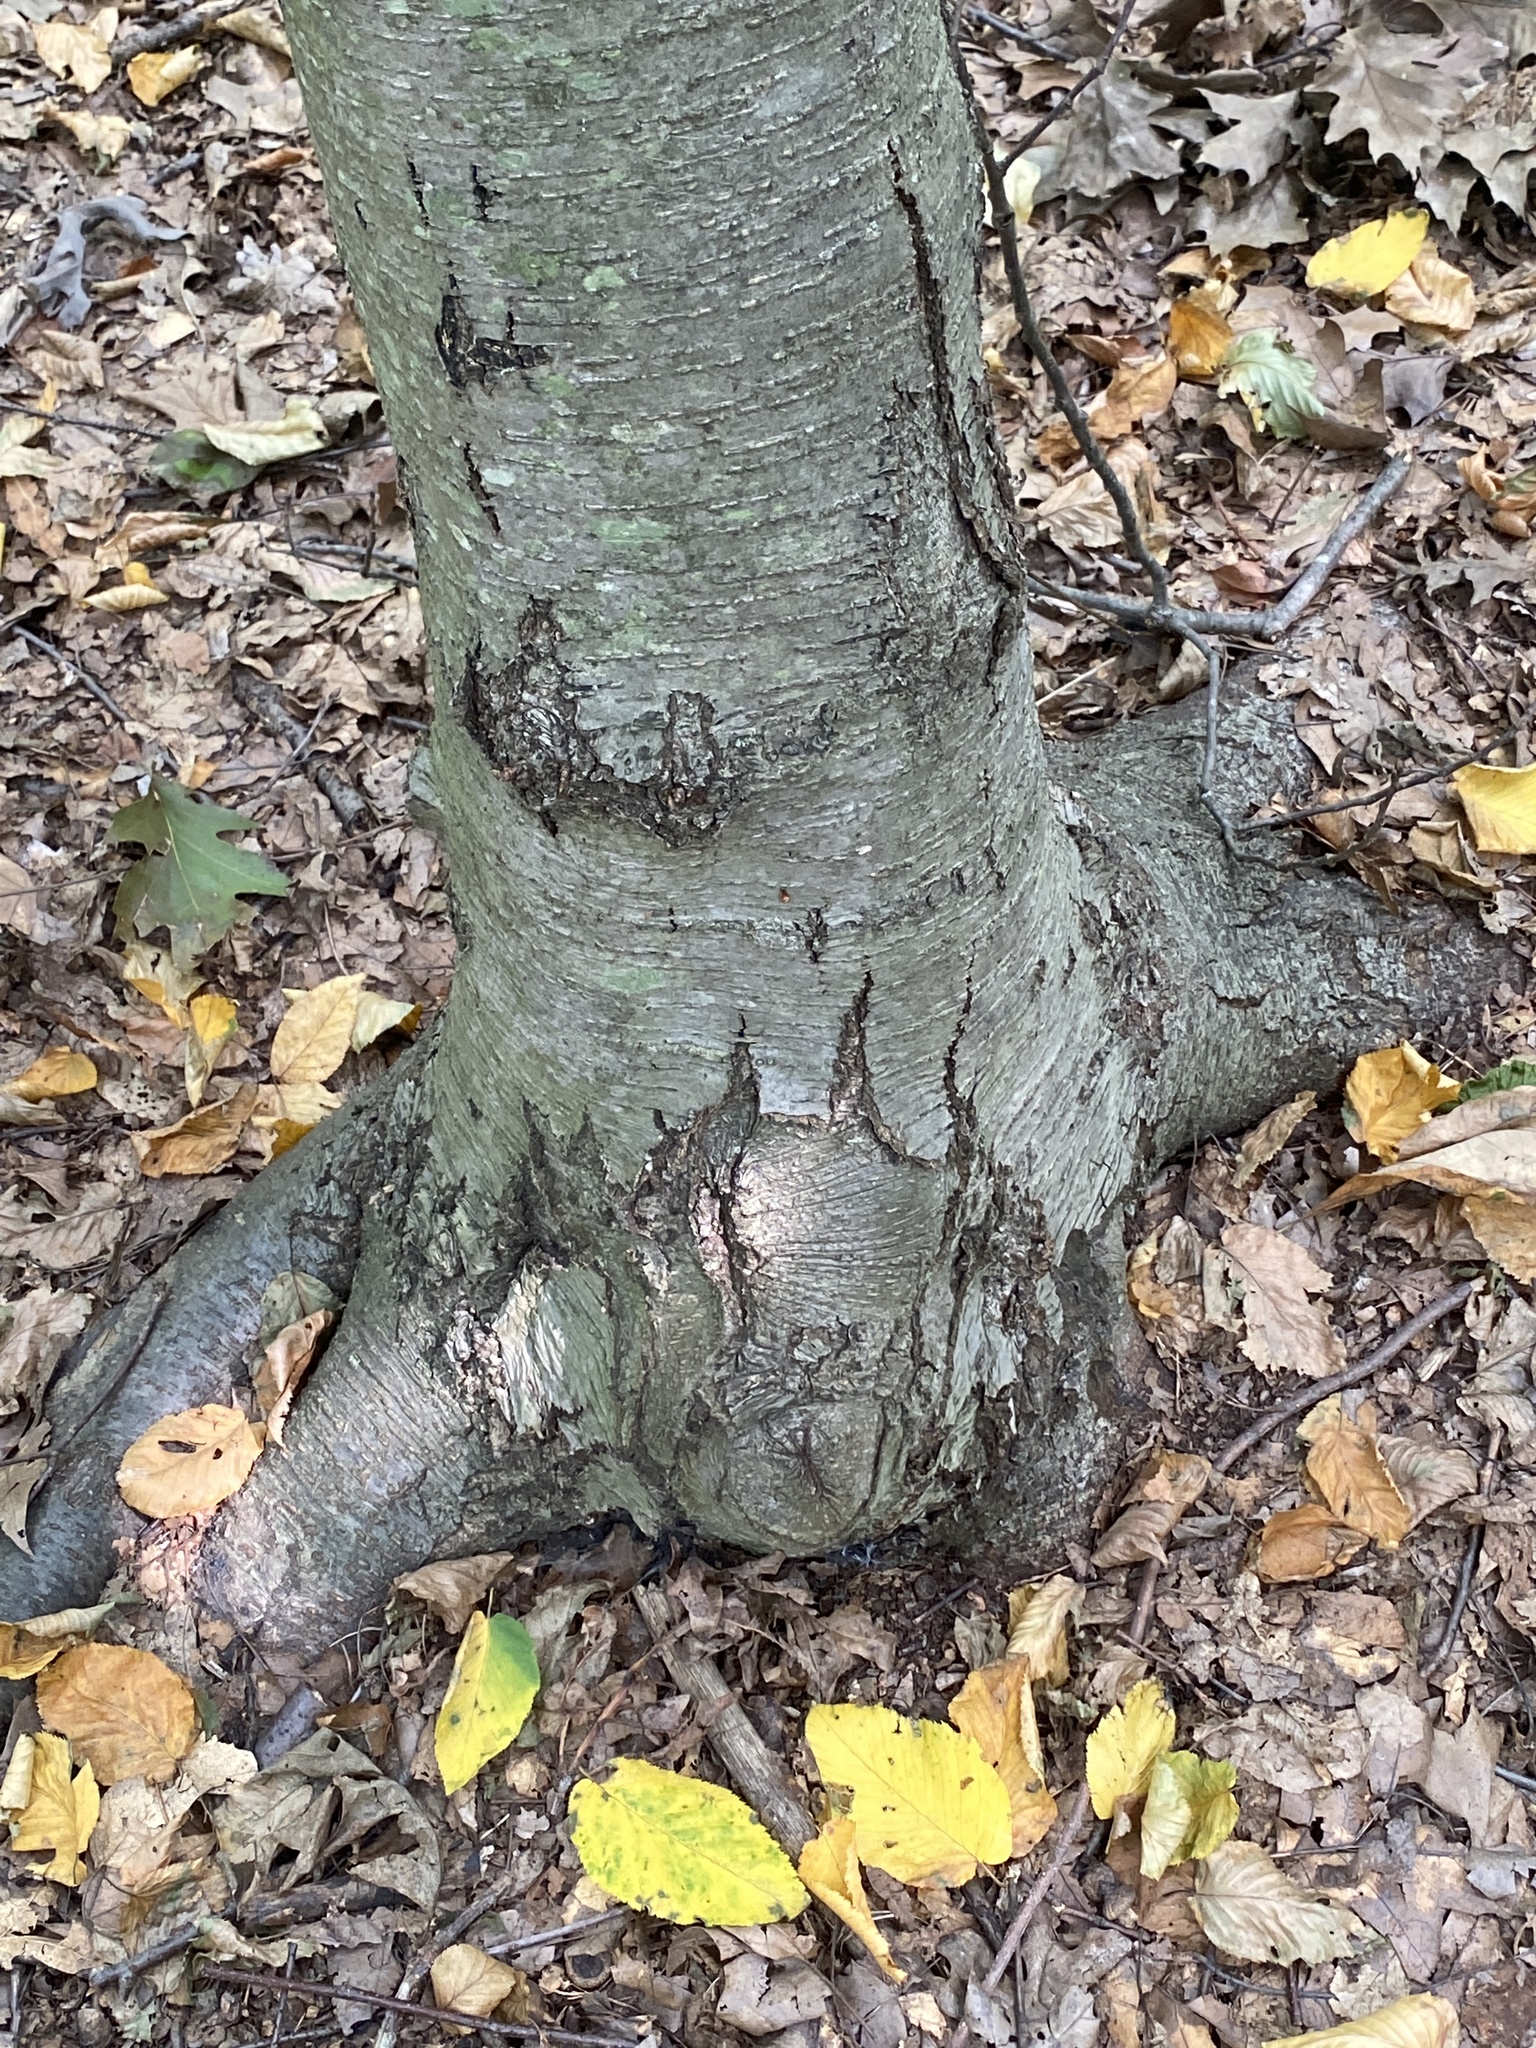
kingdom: Plantae
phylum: Tracheophyta
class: Magnoliopsida
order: Fagales
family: Betulaceae
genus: Betula
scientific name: Betula lenta
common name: Black birch
